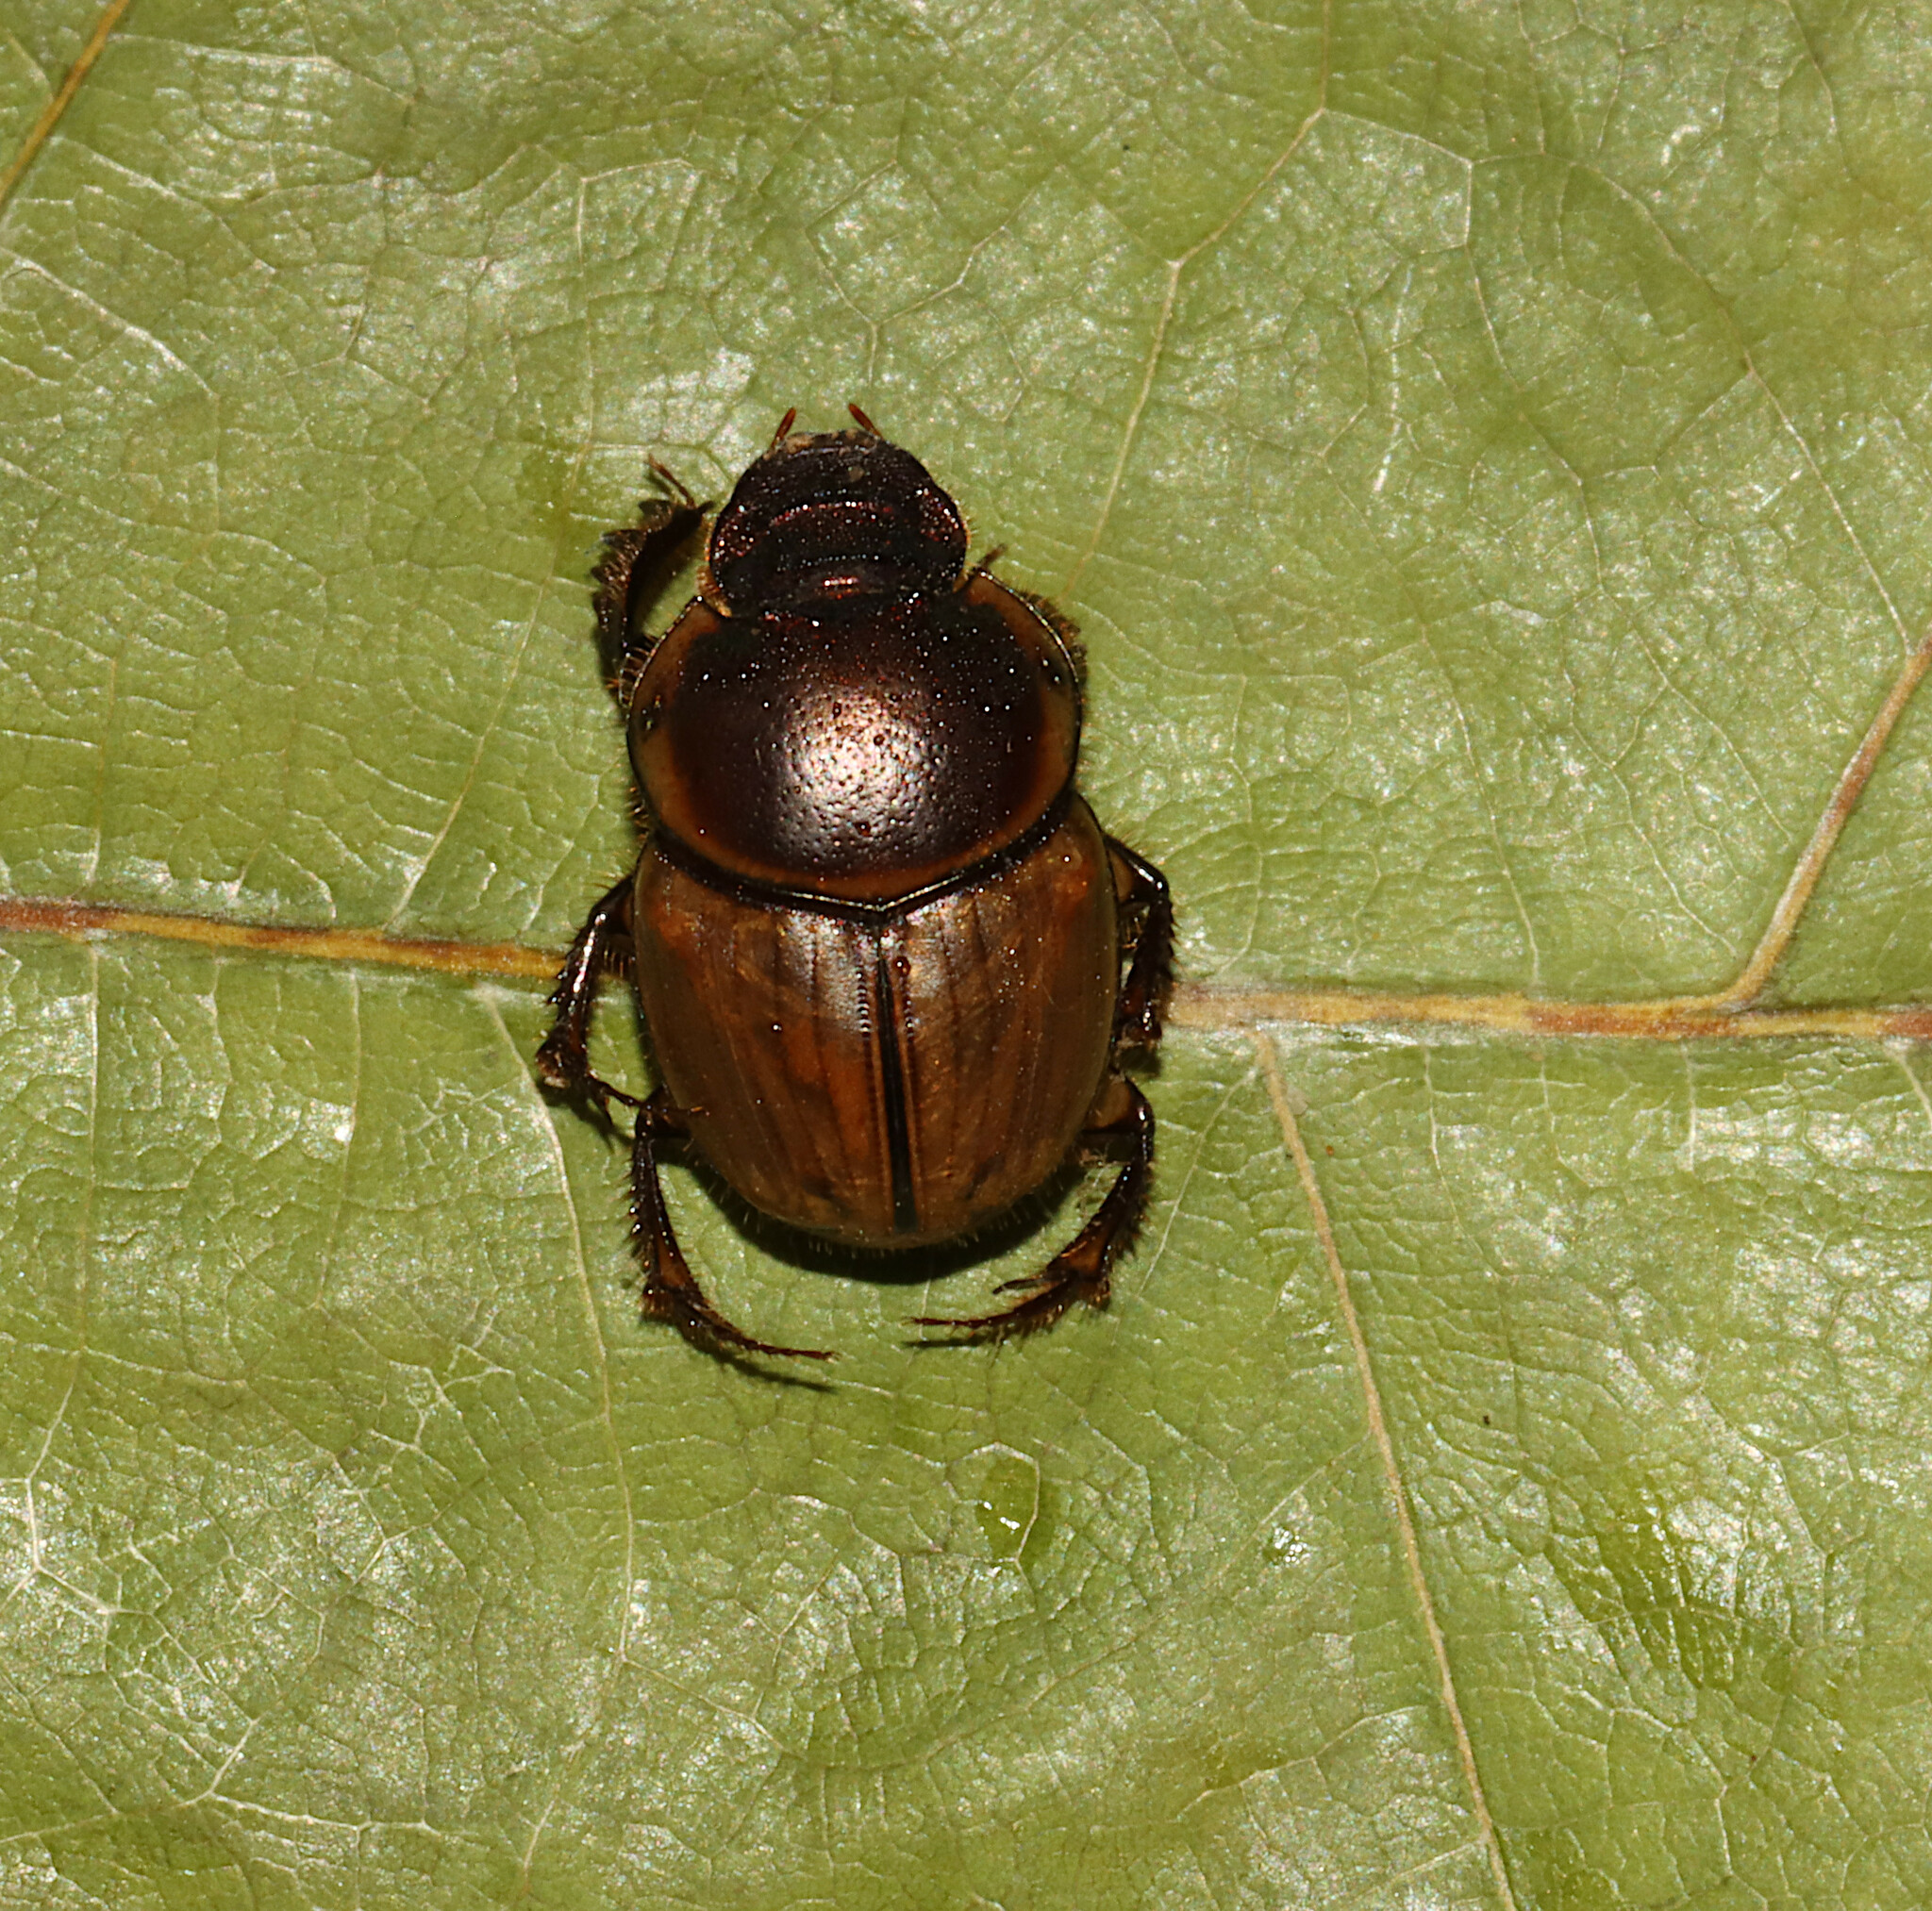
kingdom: Animalia
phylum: Arthropoda
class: Insecta
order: Coleoptera
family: Scarabaeidae
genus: Digitonthophagus
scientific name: Digitonthophagus gazella
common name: Brown dung beetle
